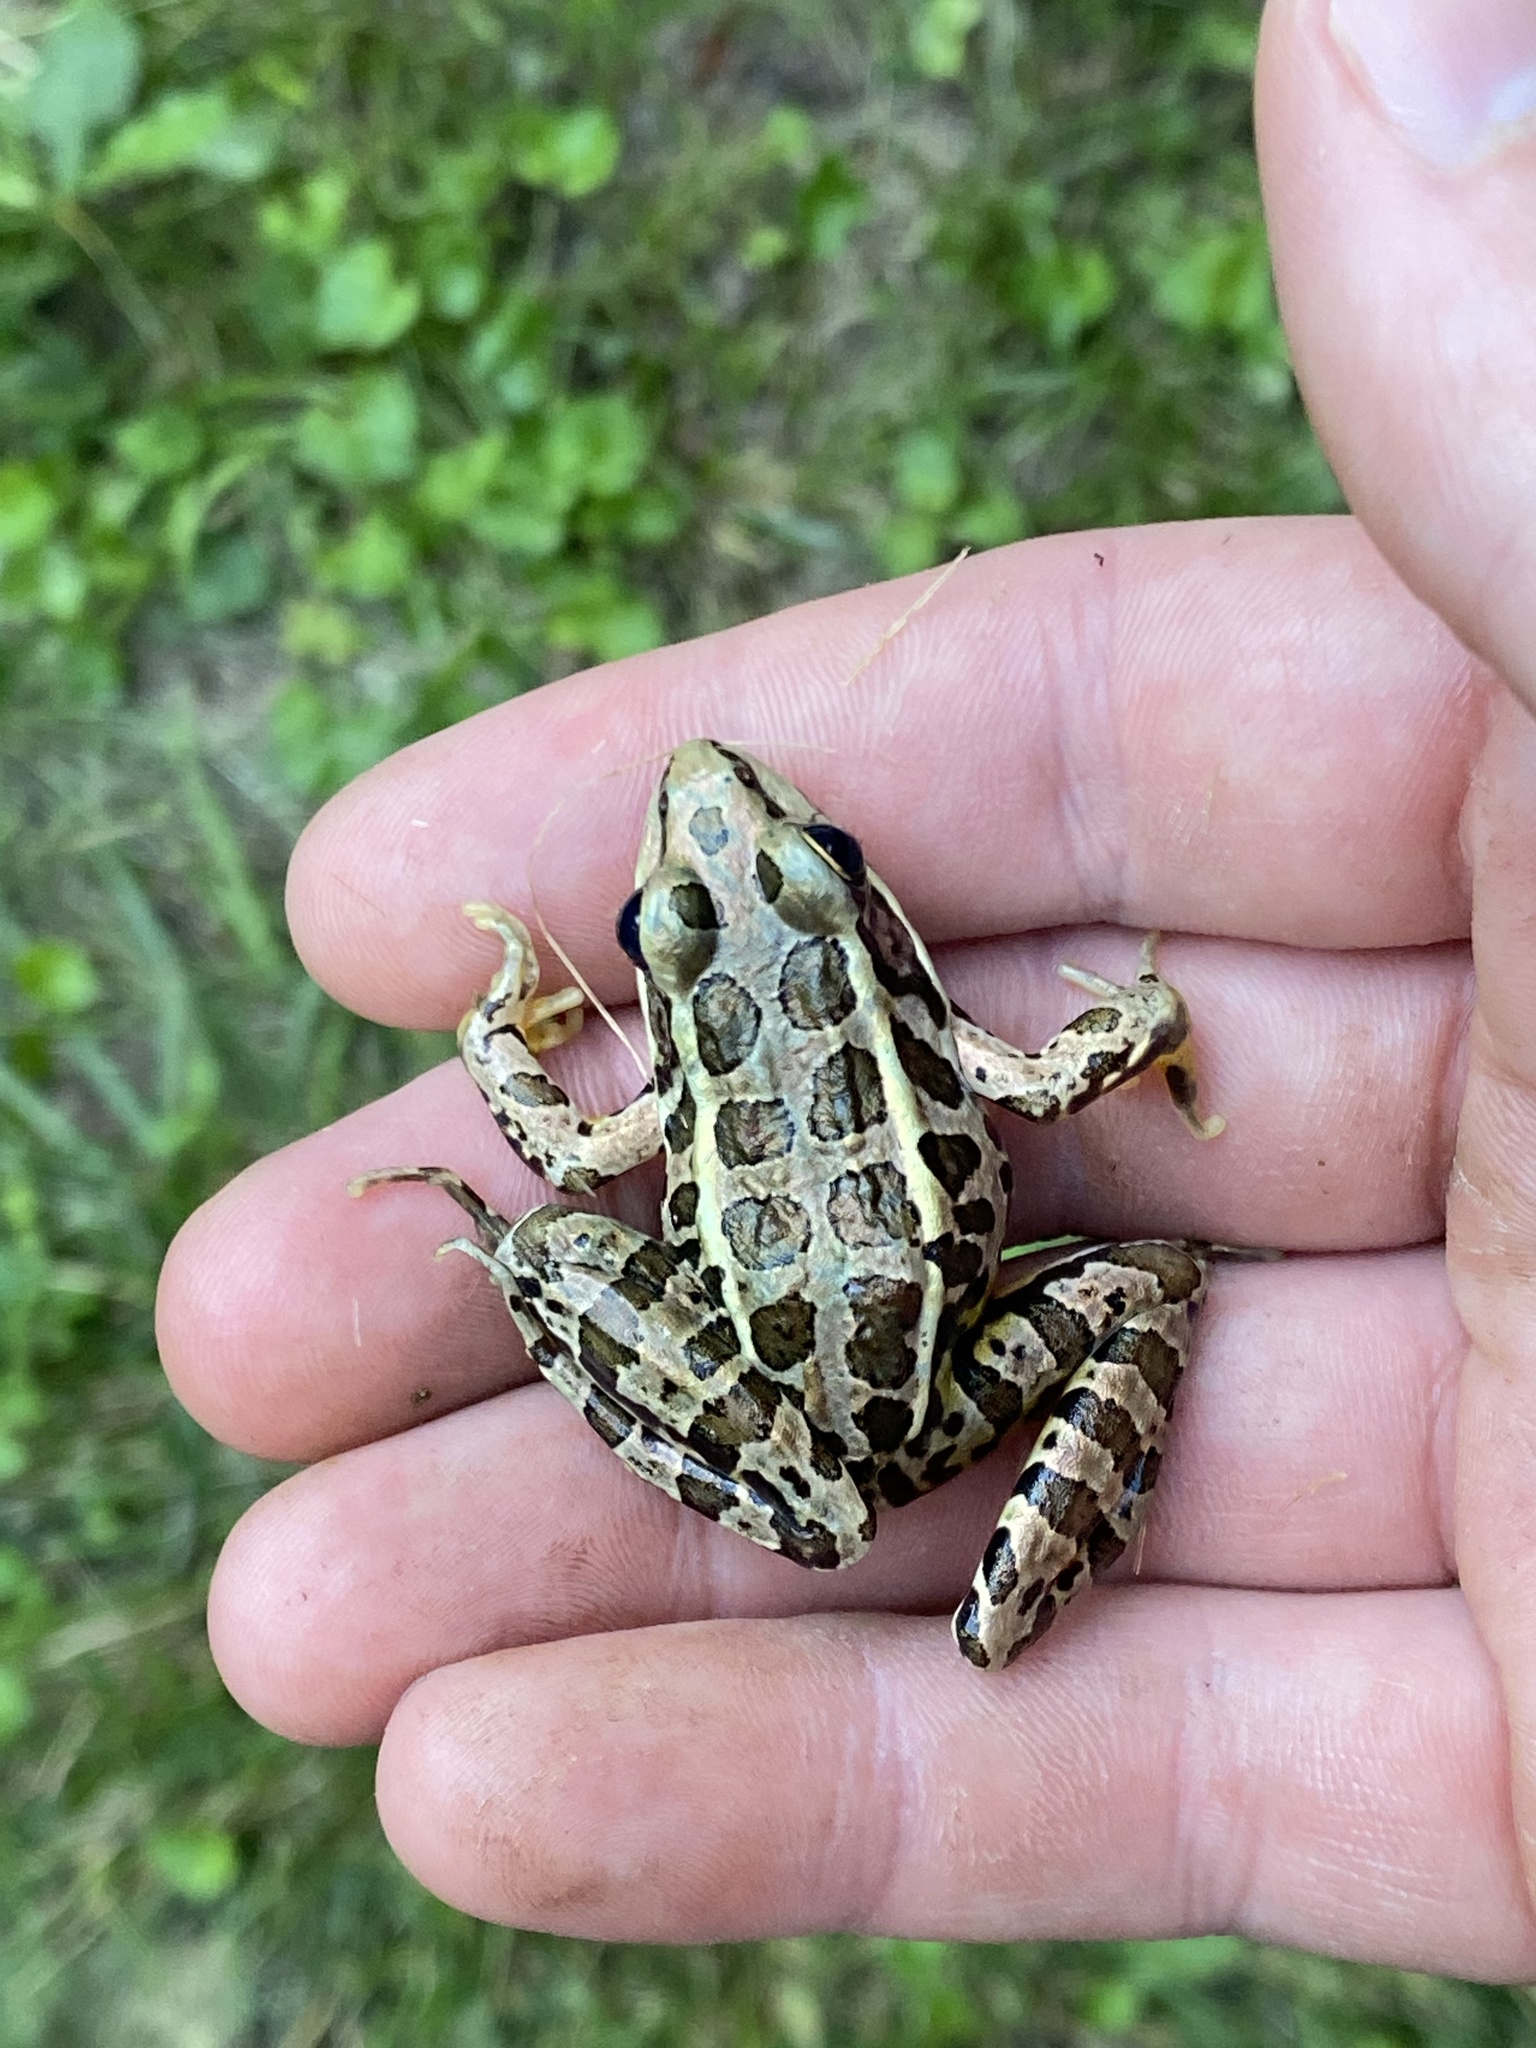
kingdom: Animalia
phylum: Chordata
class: Amphibia
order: Anura
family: Ranidae
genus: Lithobates
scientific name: Lithobates palustris
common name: Pickerel frog
